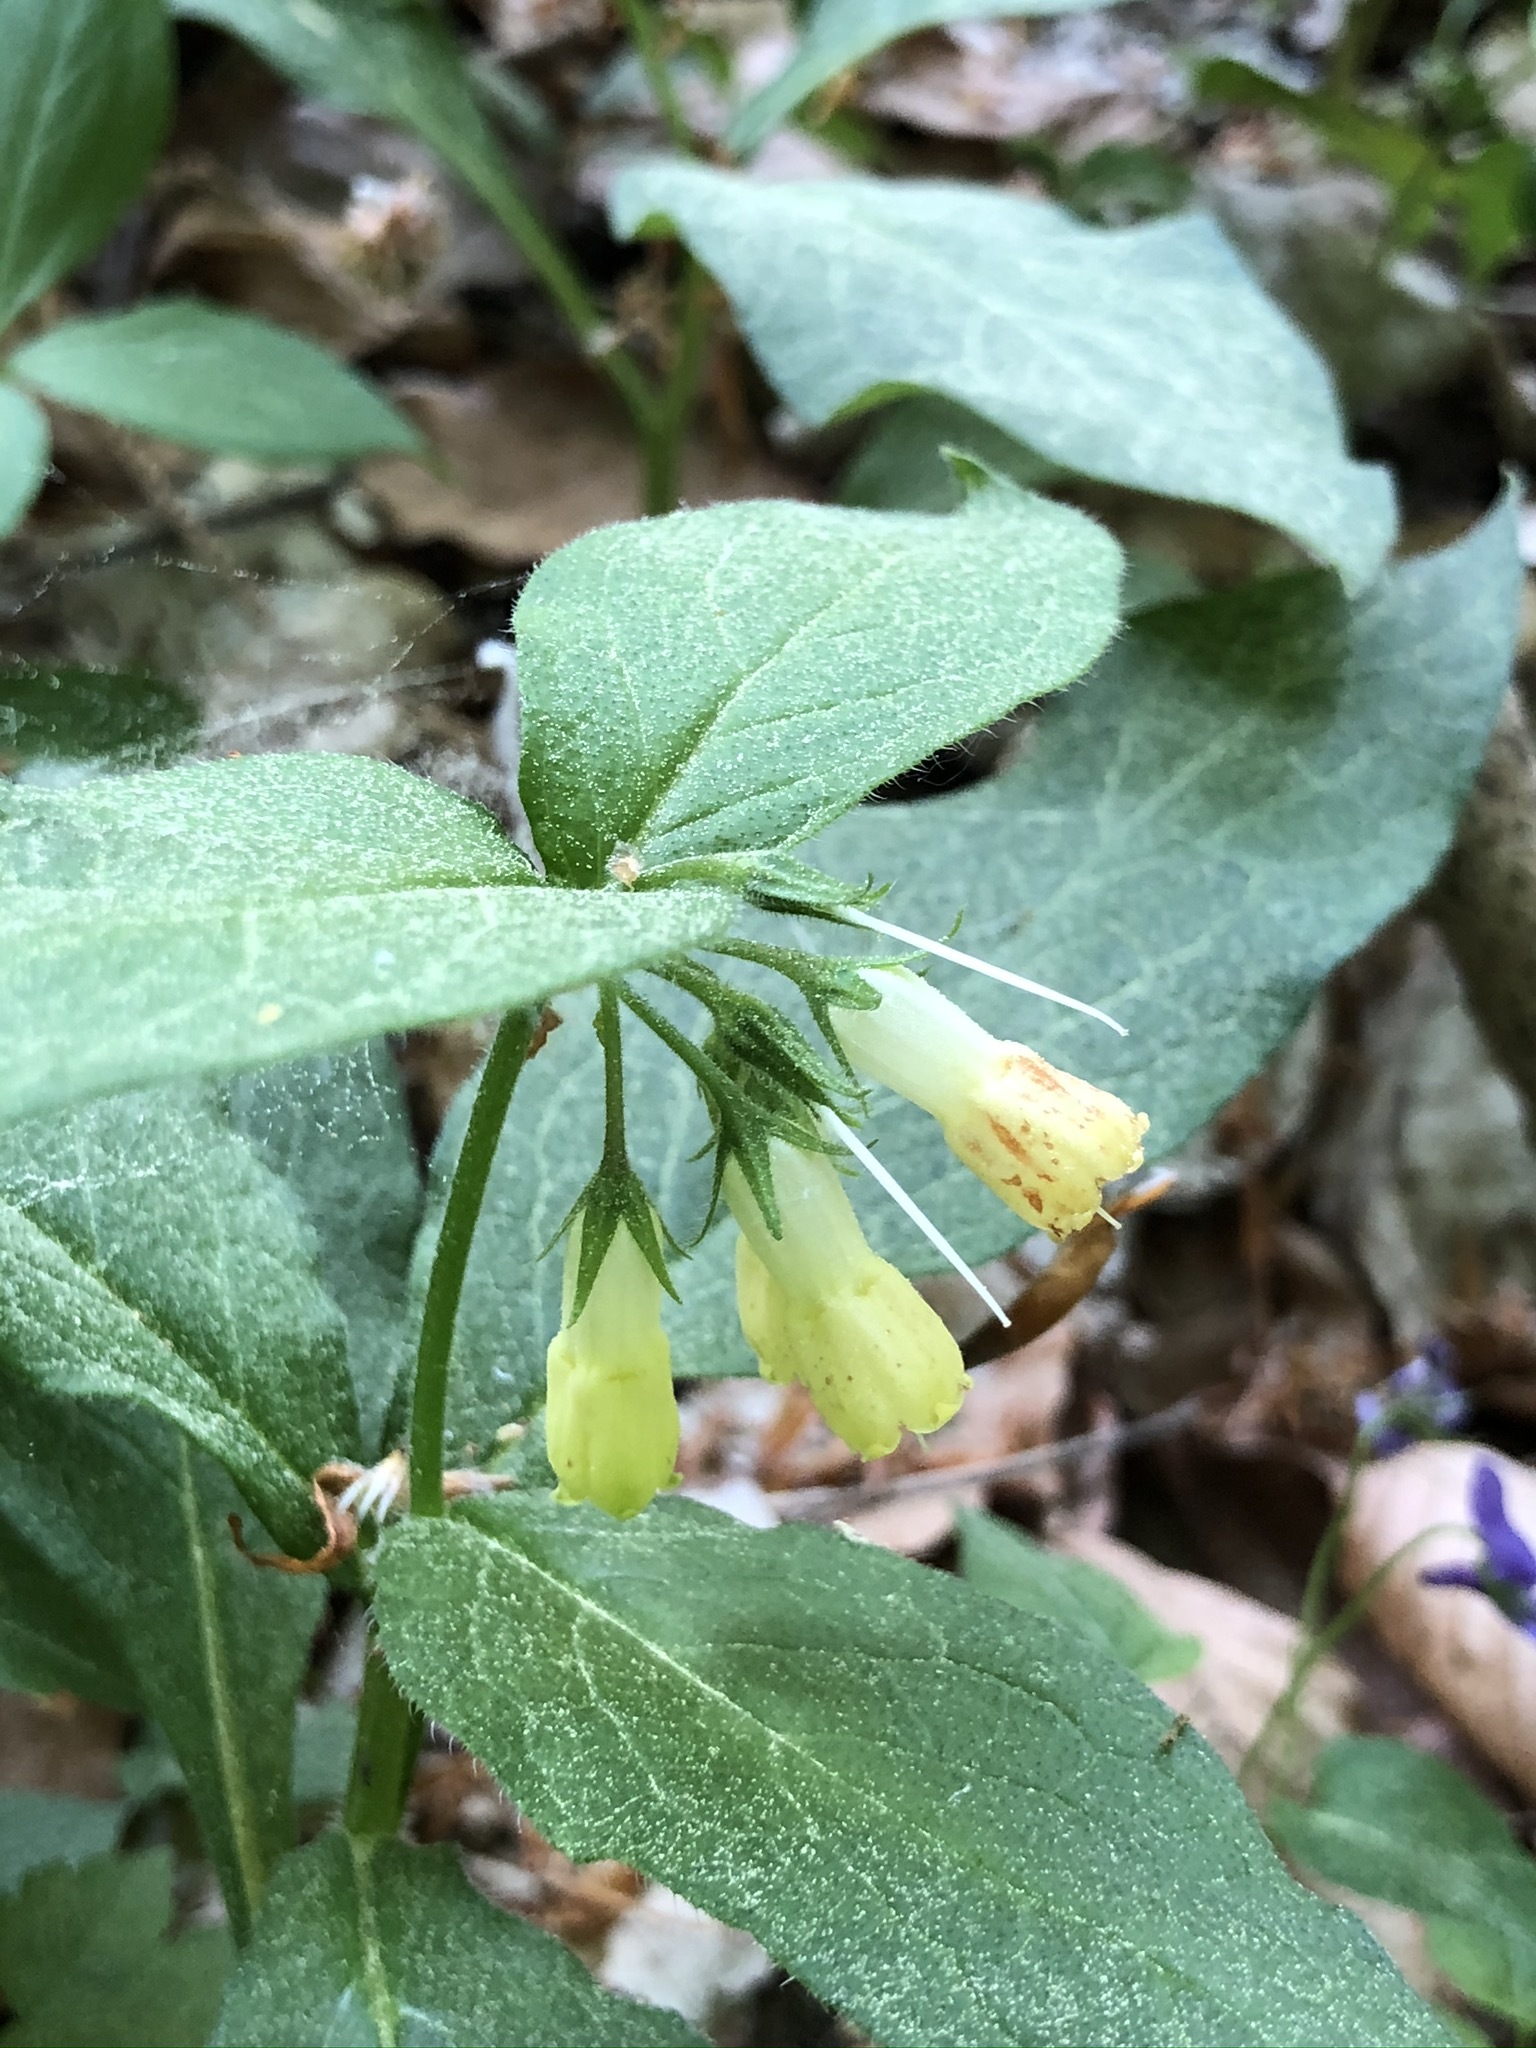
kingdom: Plantae
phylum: Tracheophyta
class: Magnoliopsida
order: Boraginales
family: Boraginaceae
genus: Symphytum
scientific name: Symphytum tuberosum
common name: Tuberous comfrey
